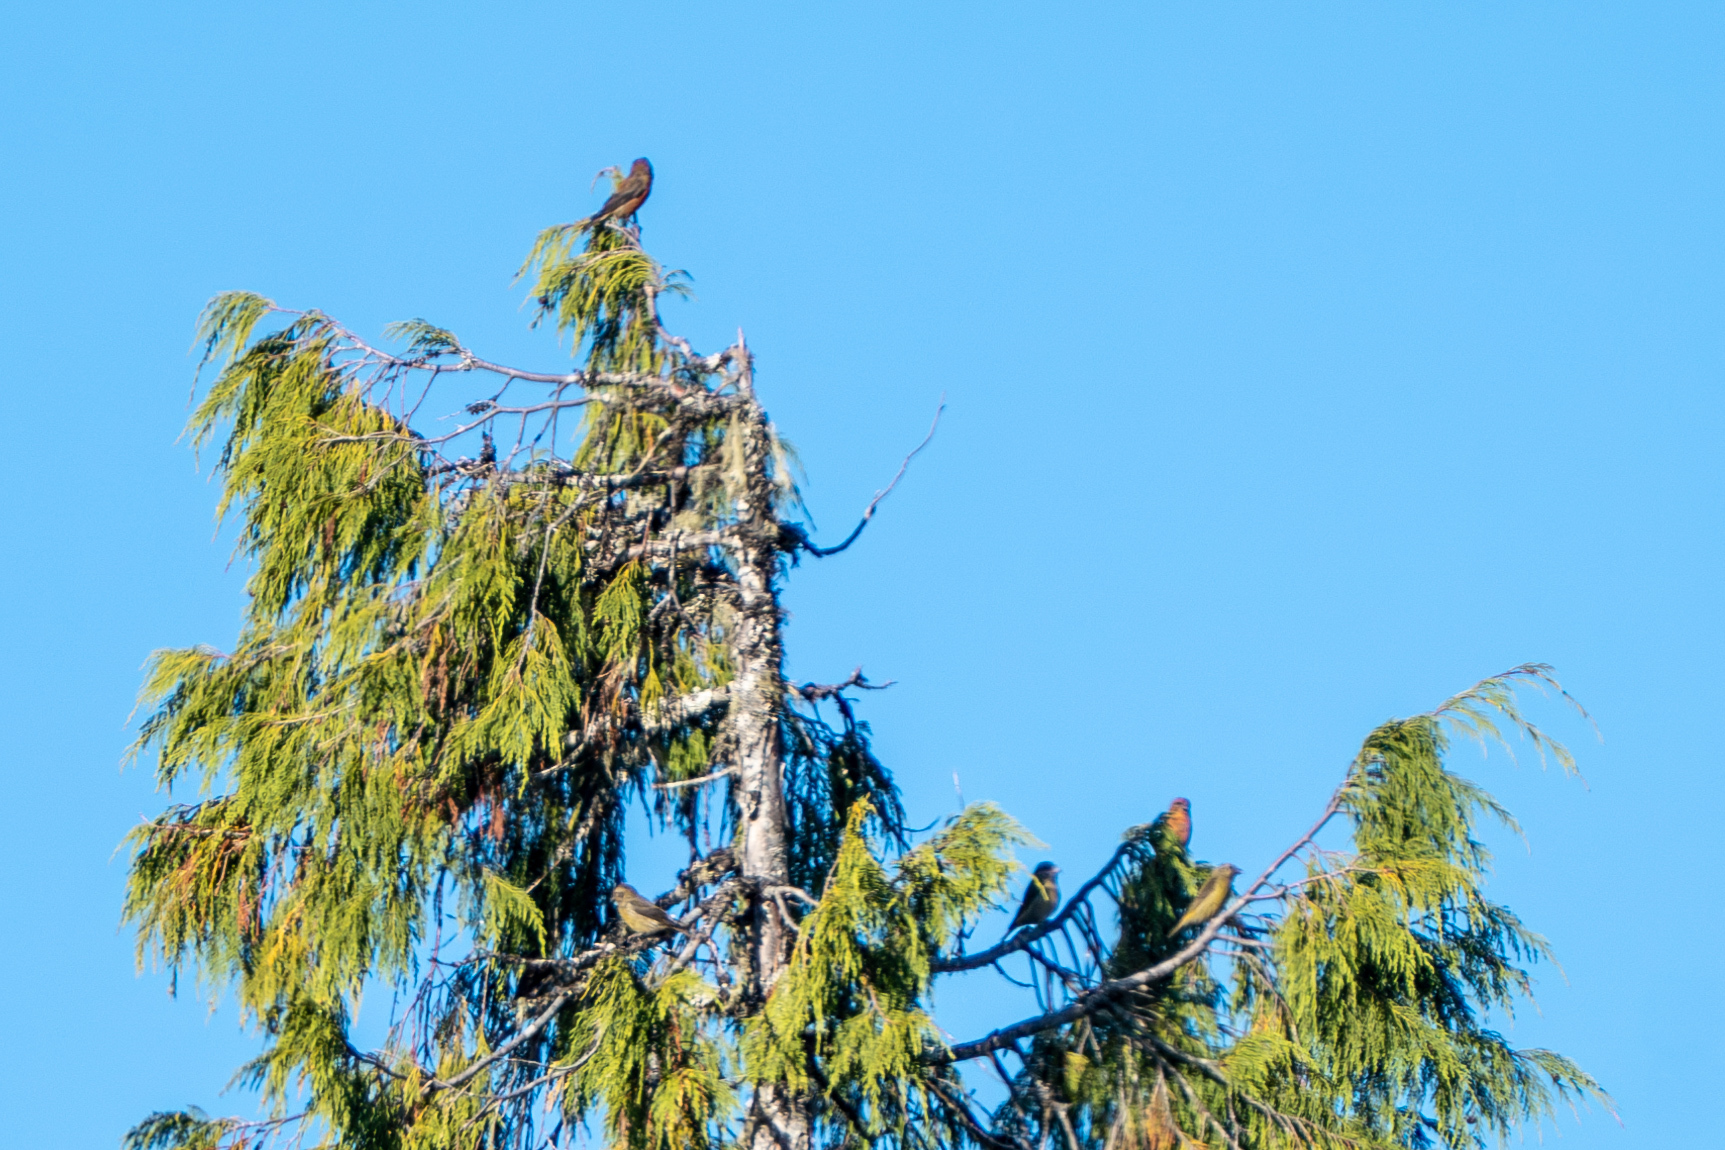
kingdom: Animalia
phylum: Chordata
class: Aves
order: Passeriformes
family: Fringillidae
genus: Loxia
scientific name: Loxia curvirostra
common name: Red crossbill
